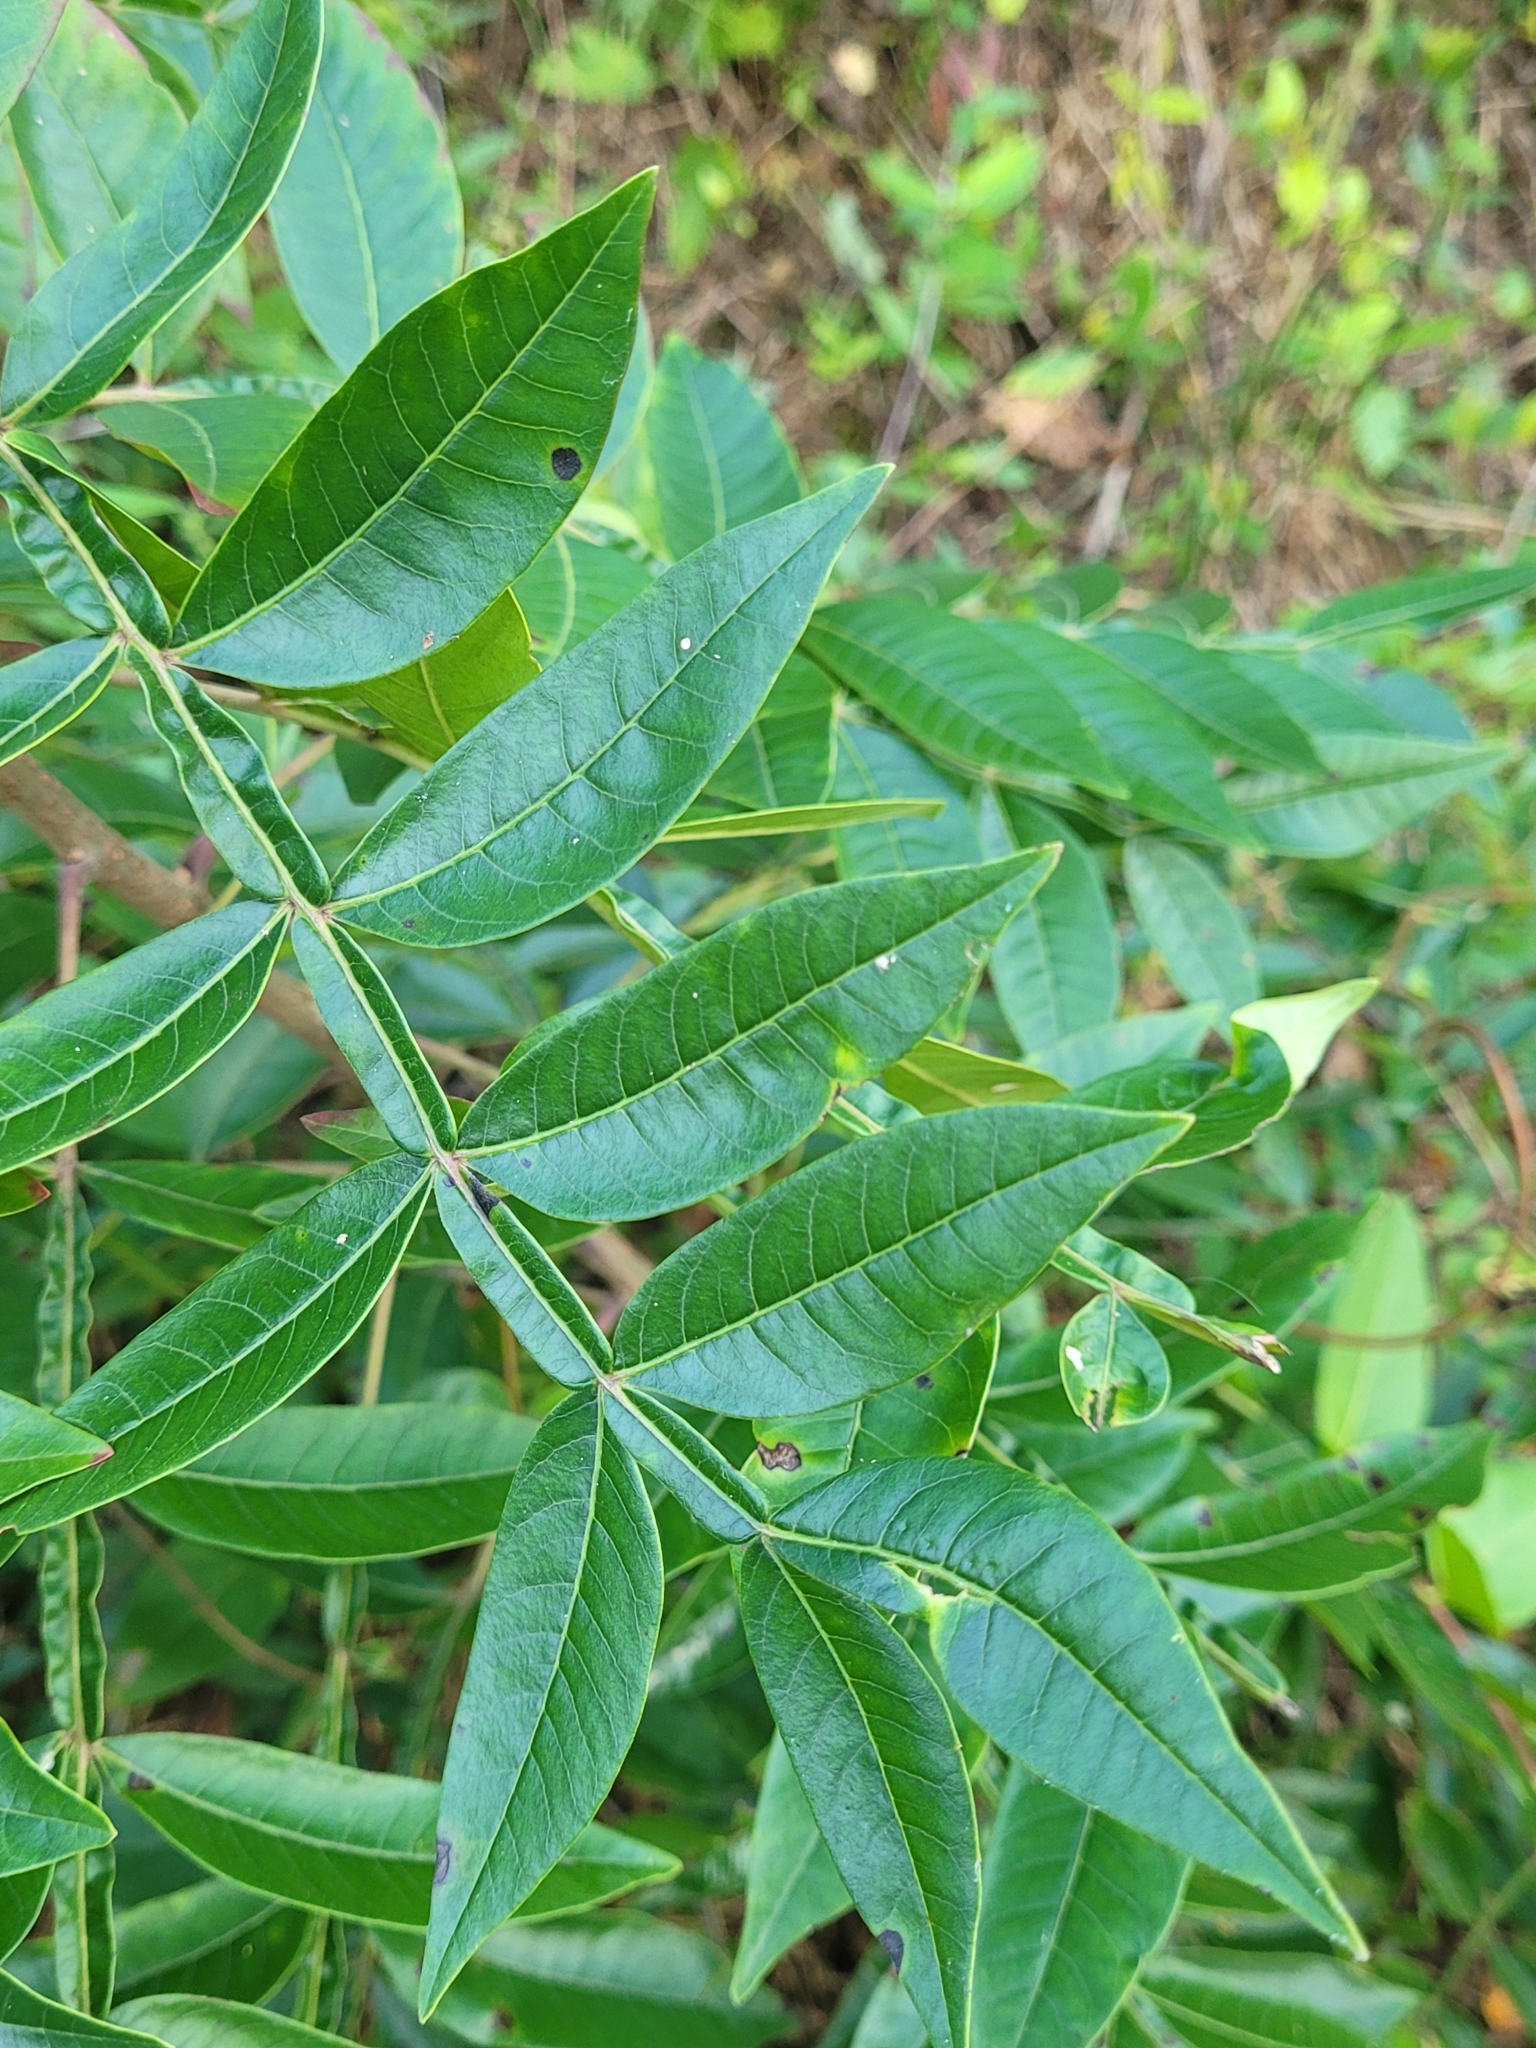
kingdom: Plantae
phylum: Tracheophyta
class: Magnoliopsida
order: Sapindales
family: Anacardiaceae
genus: Rhus
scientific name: Rhus copallina
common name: Shining sumac
